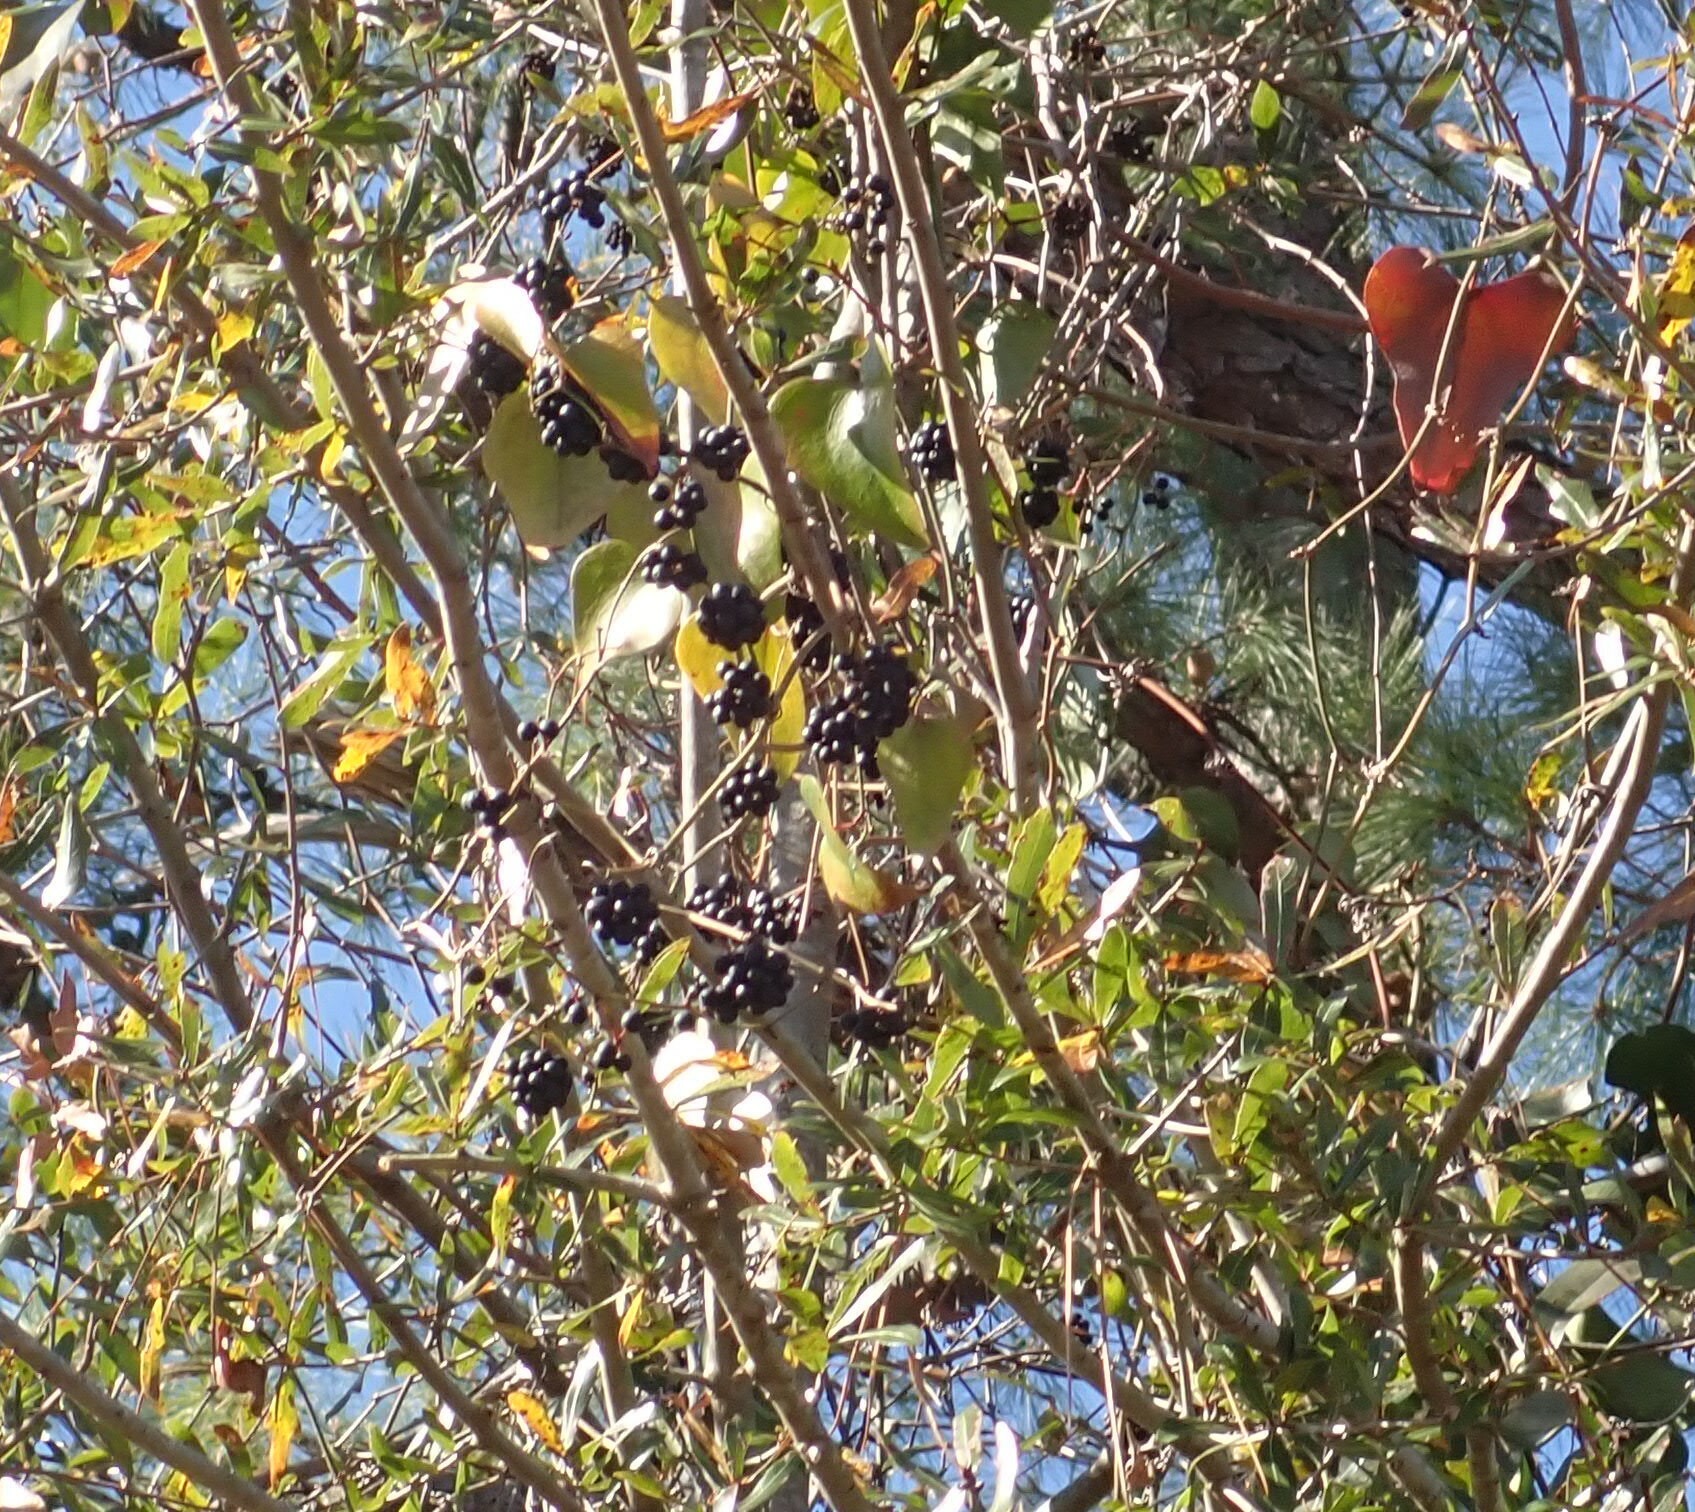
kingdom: Plantae
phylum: Tracheophyta
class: Liliopsida
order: Liliales
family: Smilacaceae
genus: Smilax
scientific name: Smilax bona-nox
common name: Catbrier
